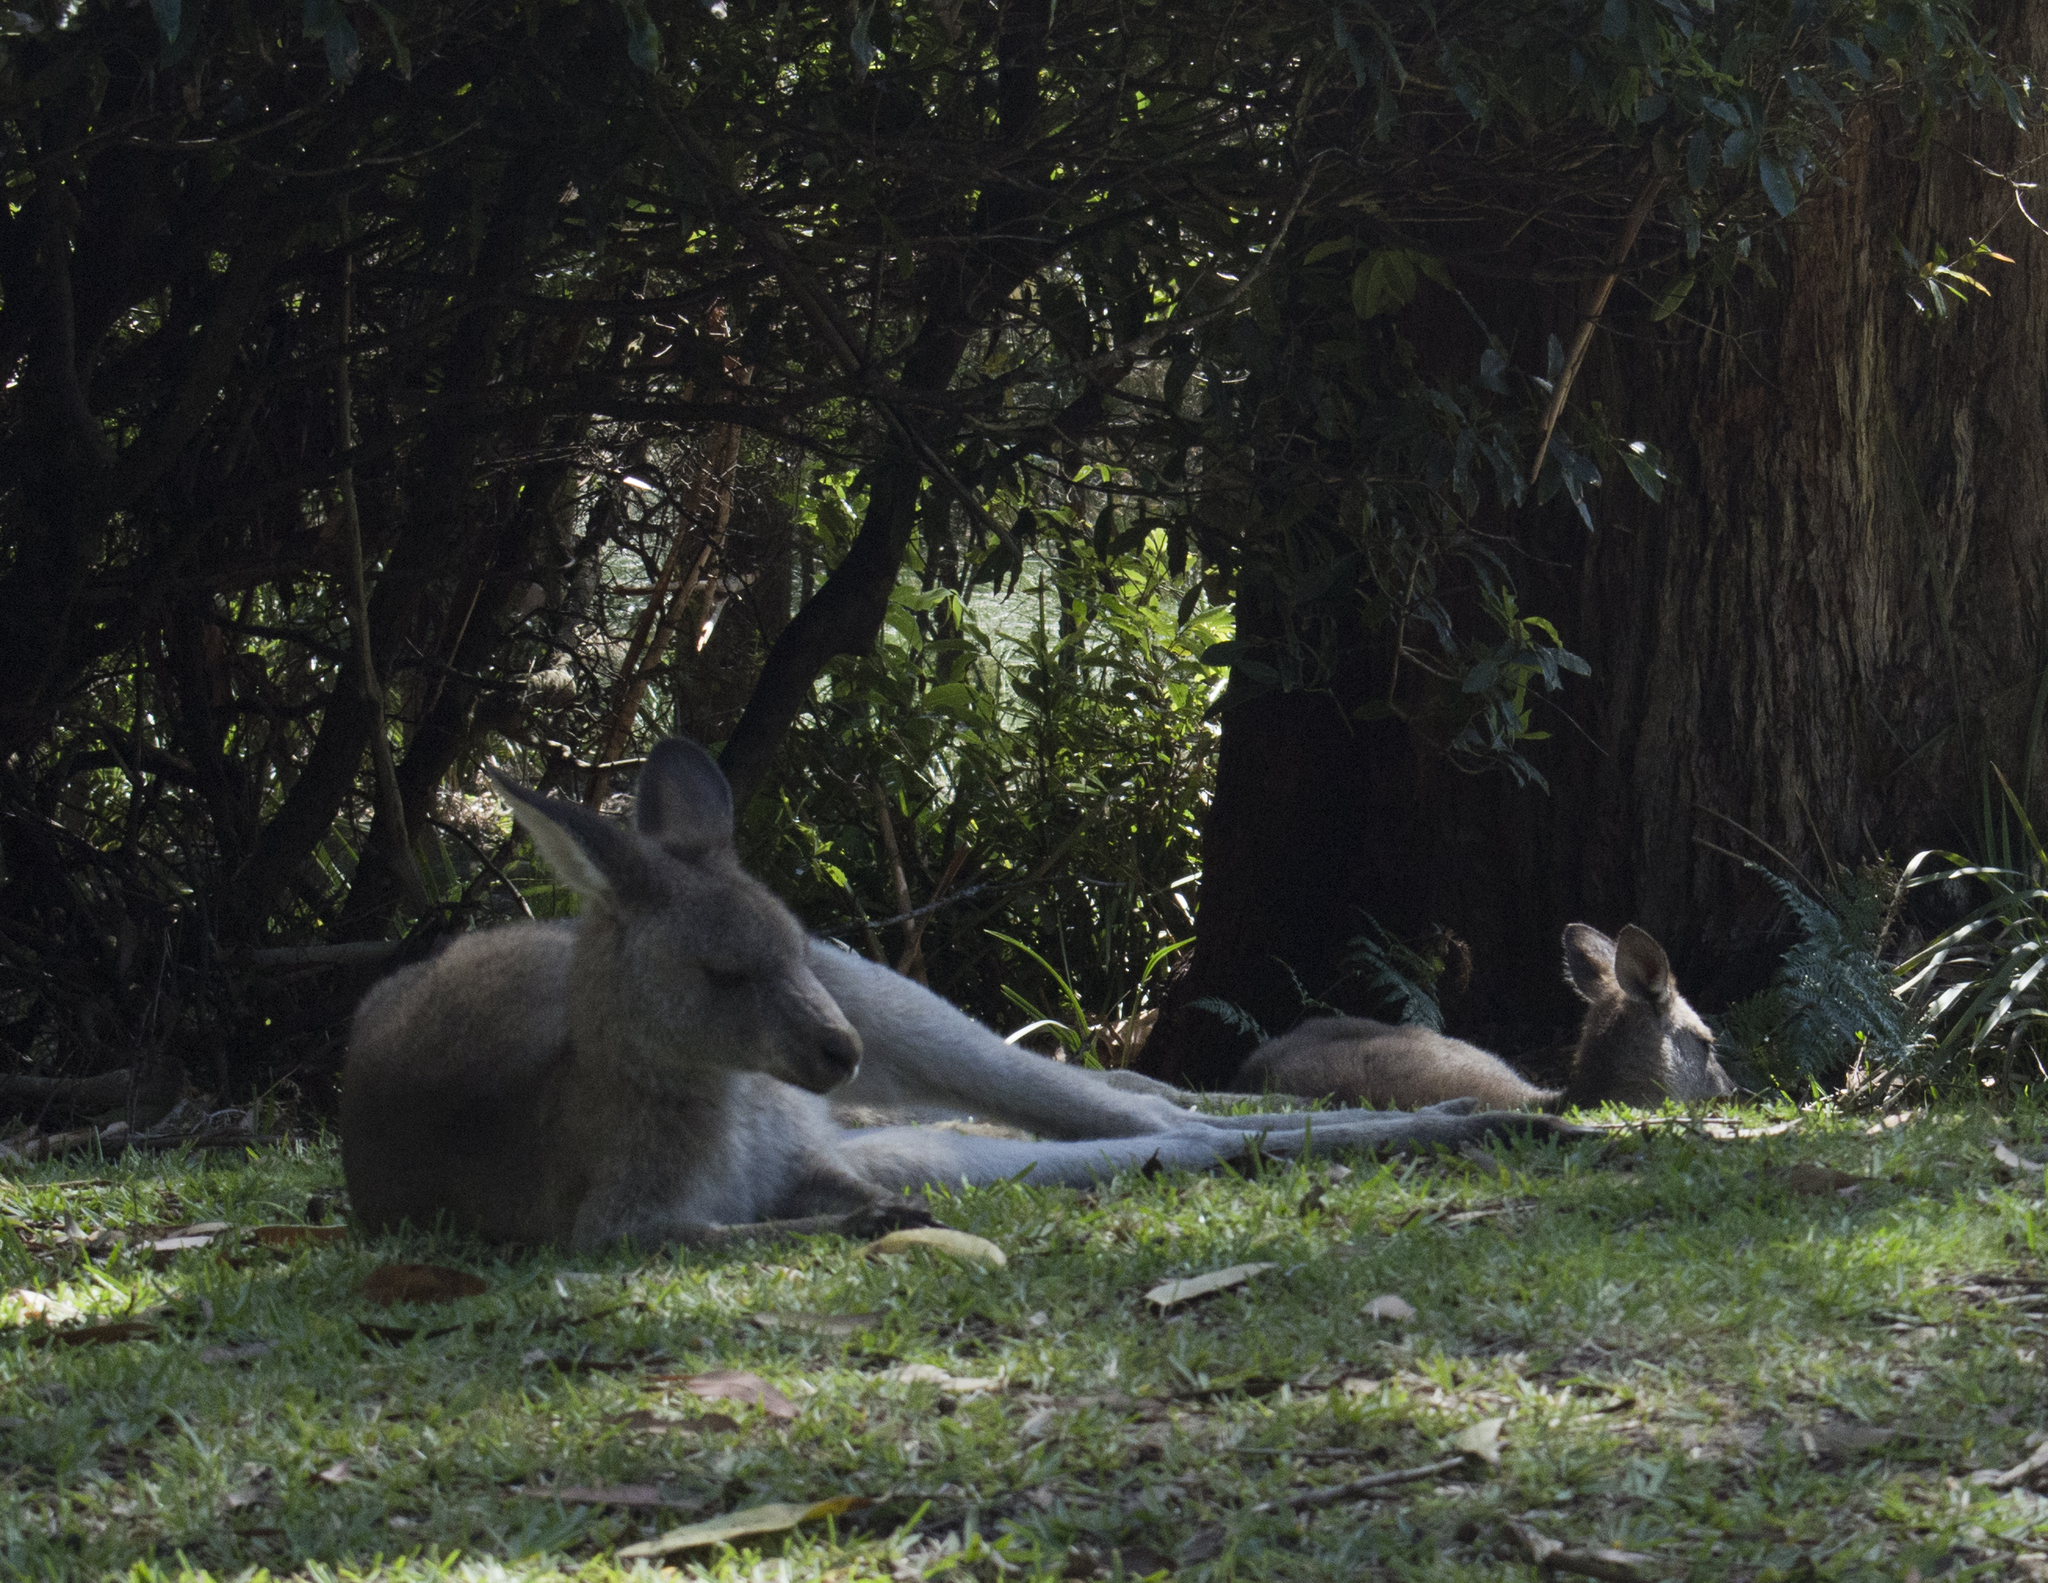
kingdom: Animalia
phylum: Chordata
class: Mammalia
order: Diprotodontia
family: Macropodidae
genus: Macropus
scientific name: Macropus giganteus
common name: Eastern grey kangaroo
